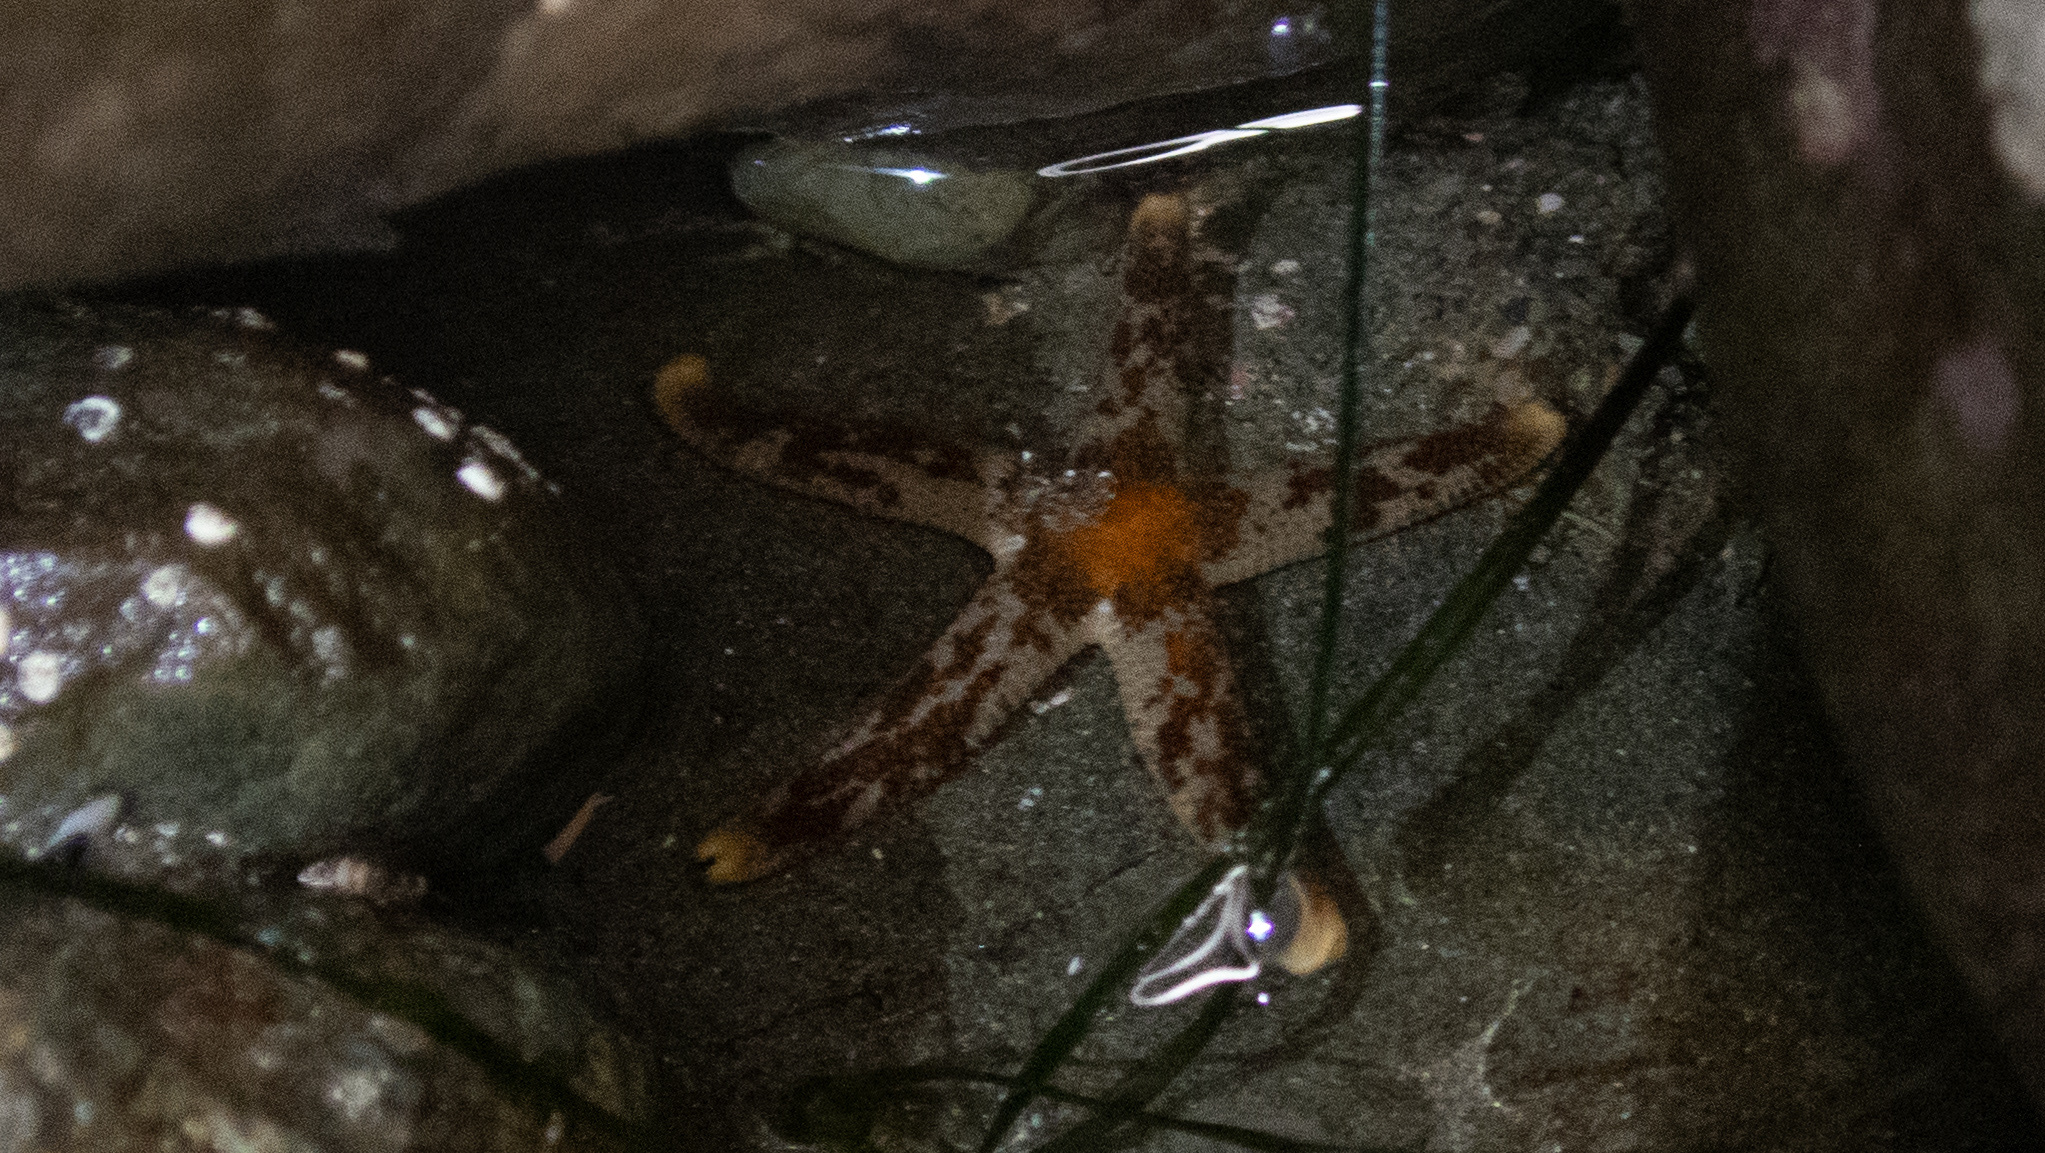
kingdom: Animalia
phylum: Echinodermata
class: Asteroidea
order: Spinulosida
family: Echinasteridae
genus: Henricia
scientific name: Henricia pumila
